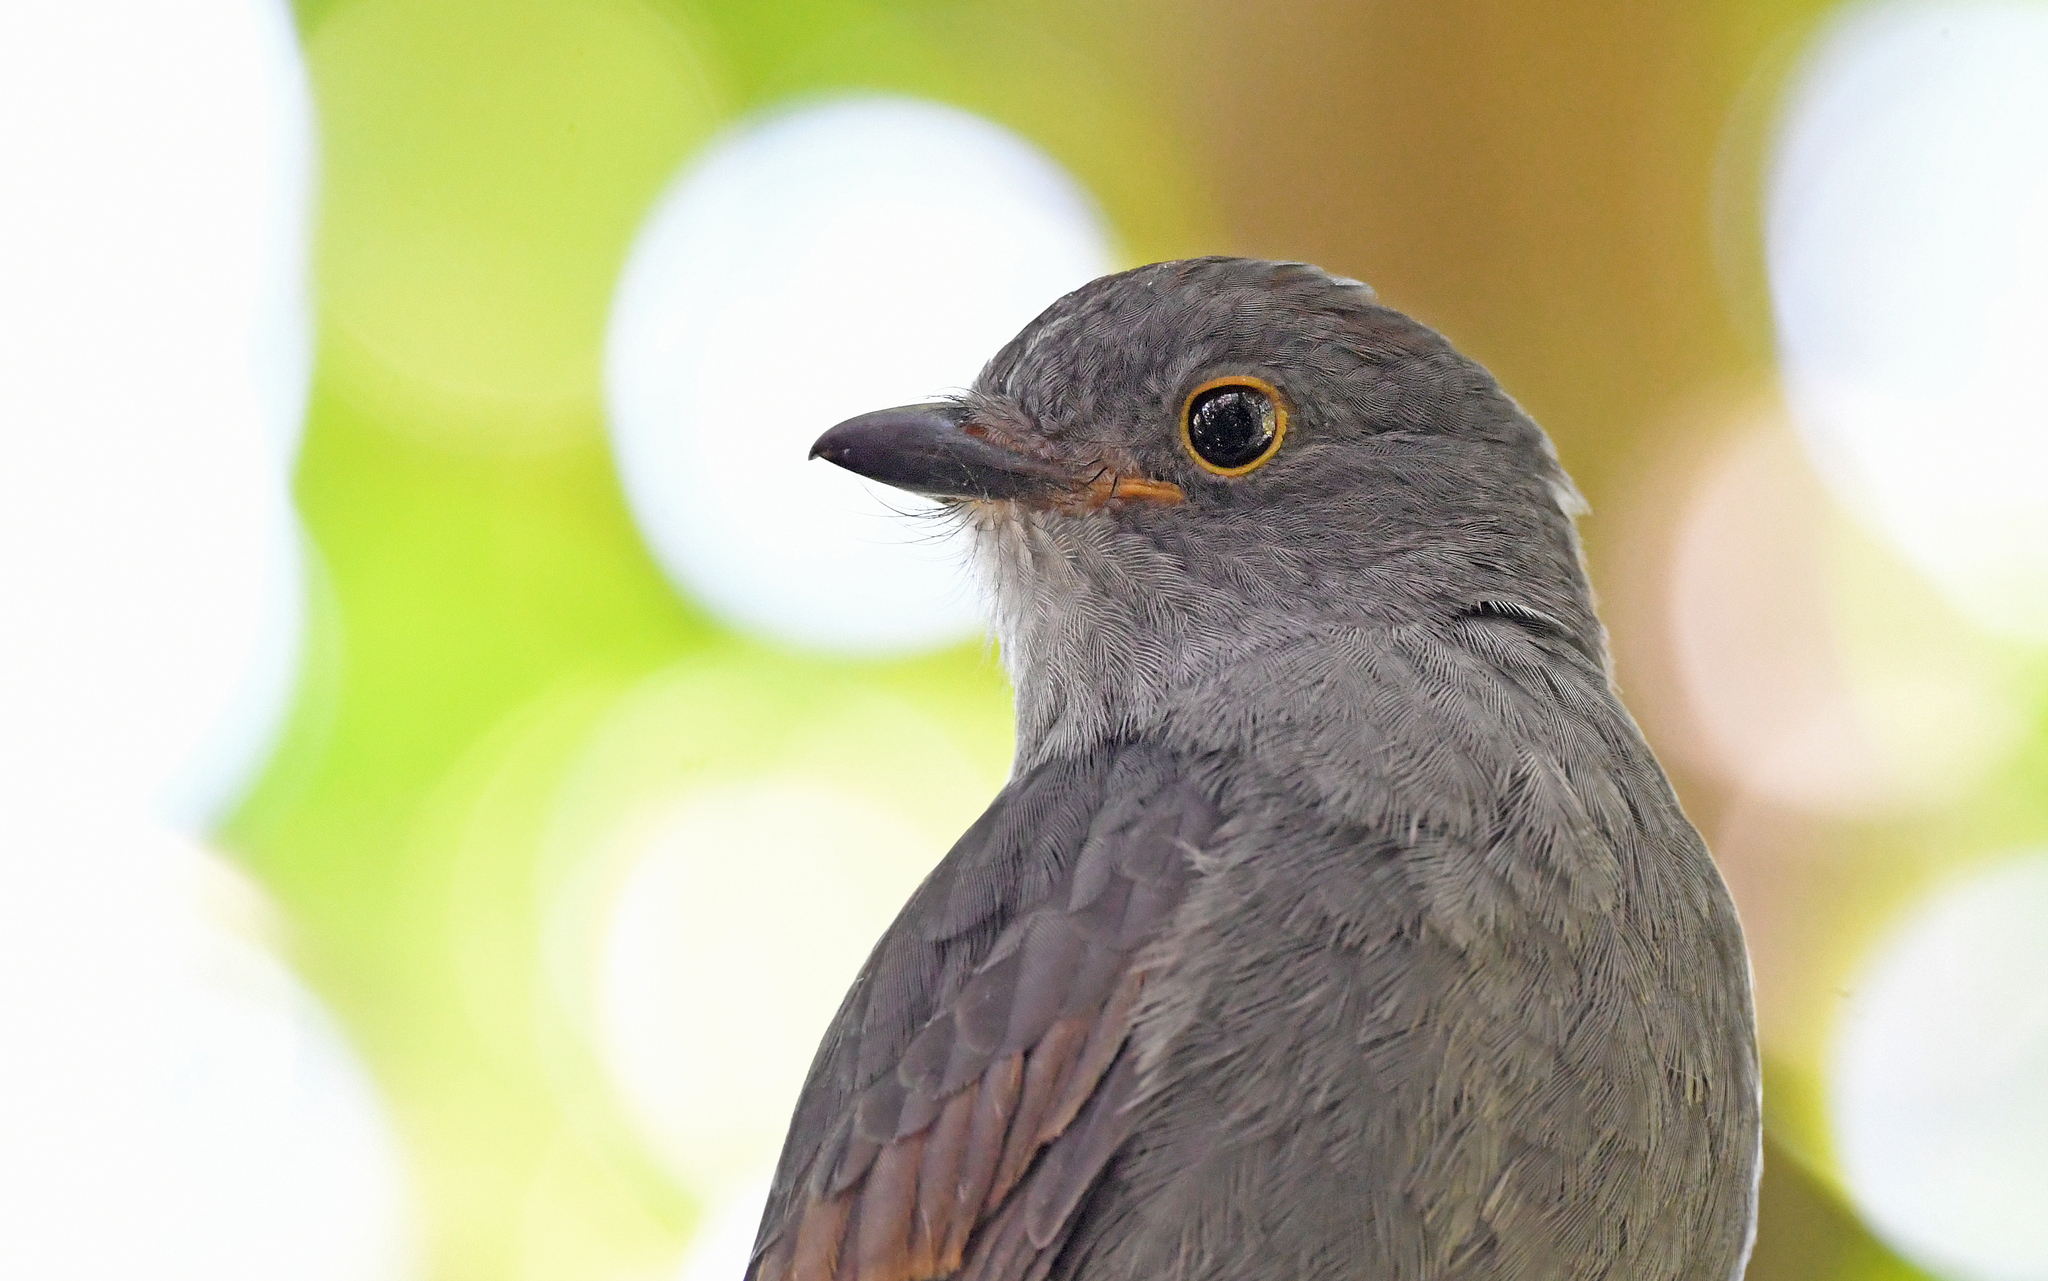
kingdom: Animalia
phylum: Chordata
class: Aves
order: Passeriformes
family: Cotingidae
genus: Lipaugus
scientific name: Lipaugus weberi
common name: Chestnut-capped piha
